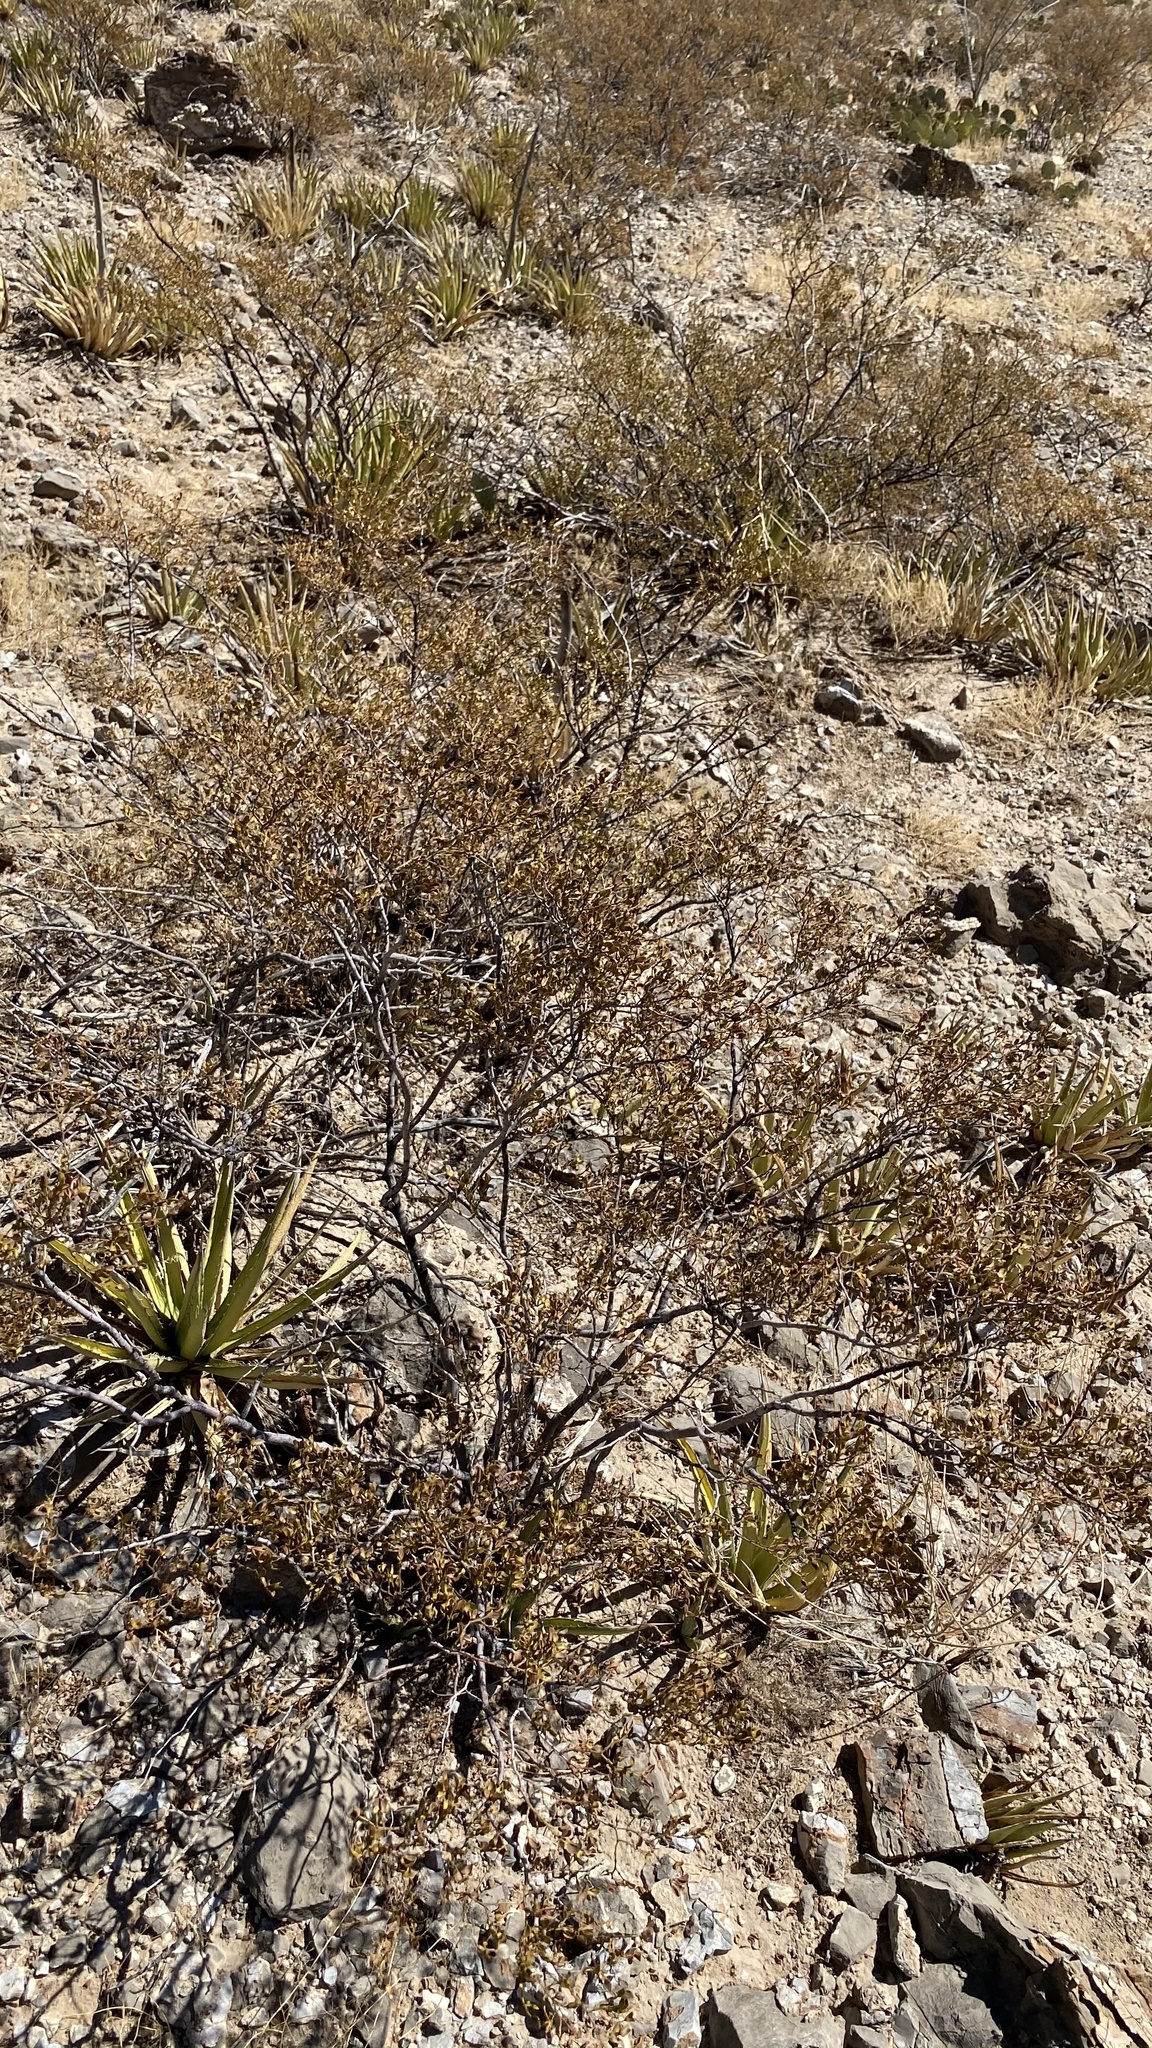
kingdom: Plantae
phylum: Tracheophyta
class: Magnoliopsida
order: Zygophyllales
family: Zygophyllaceae
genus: Larrea
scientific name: Larrea tridentata
